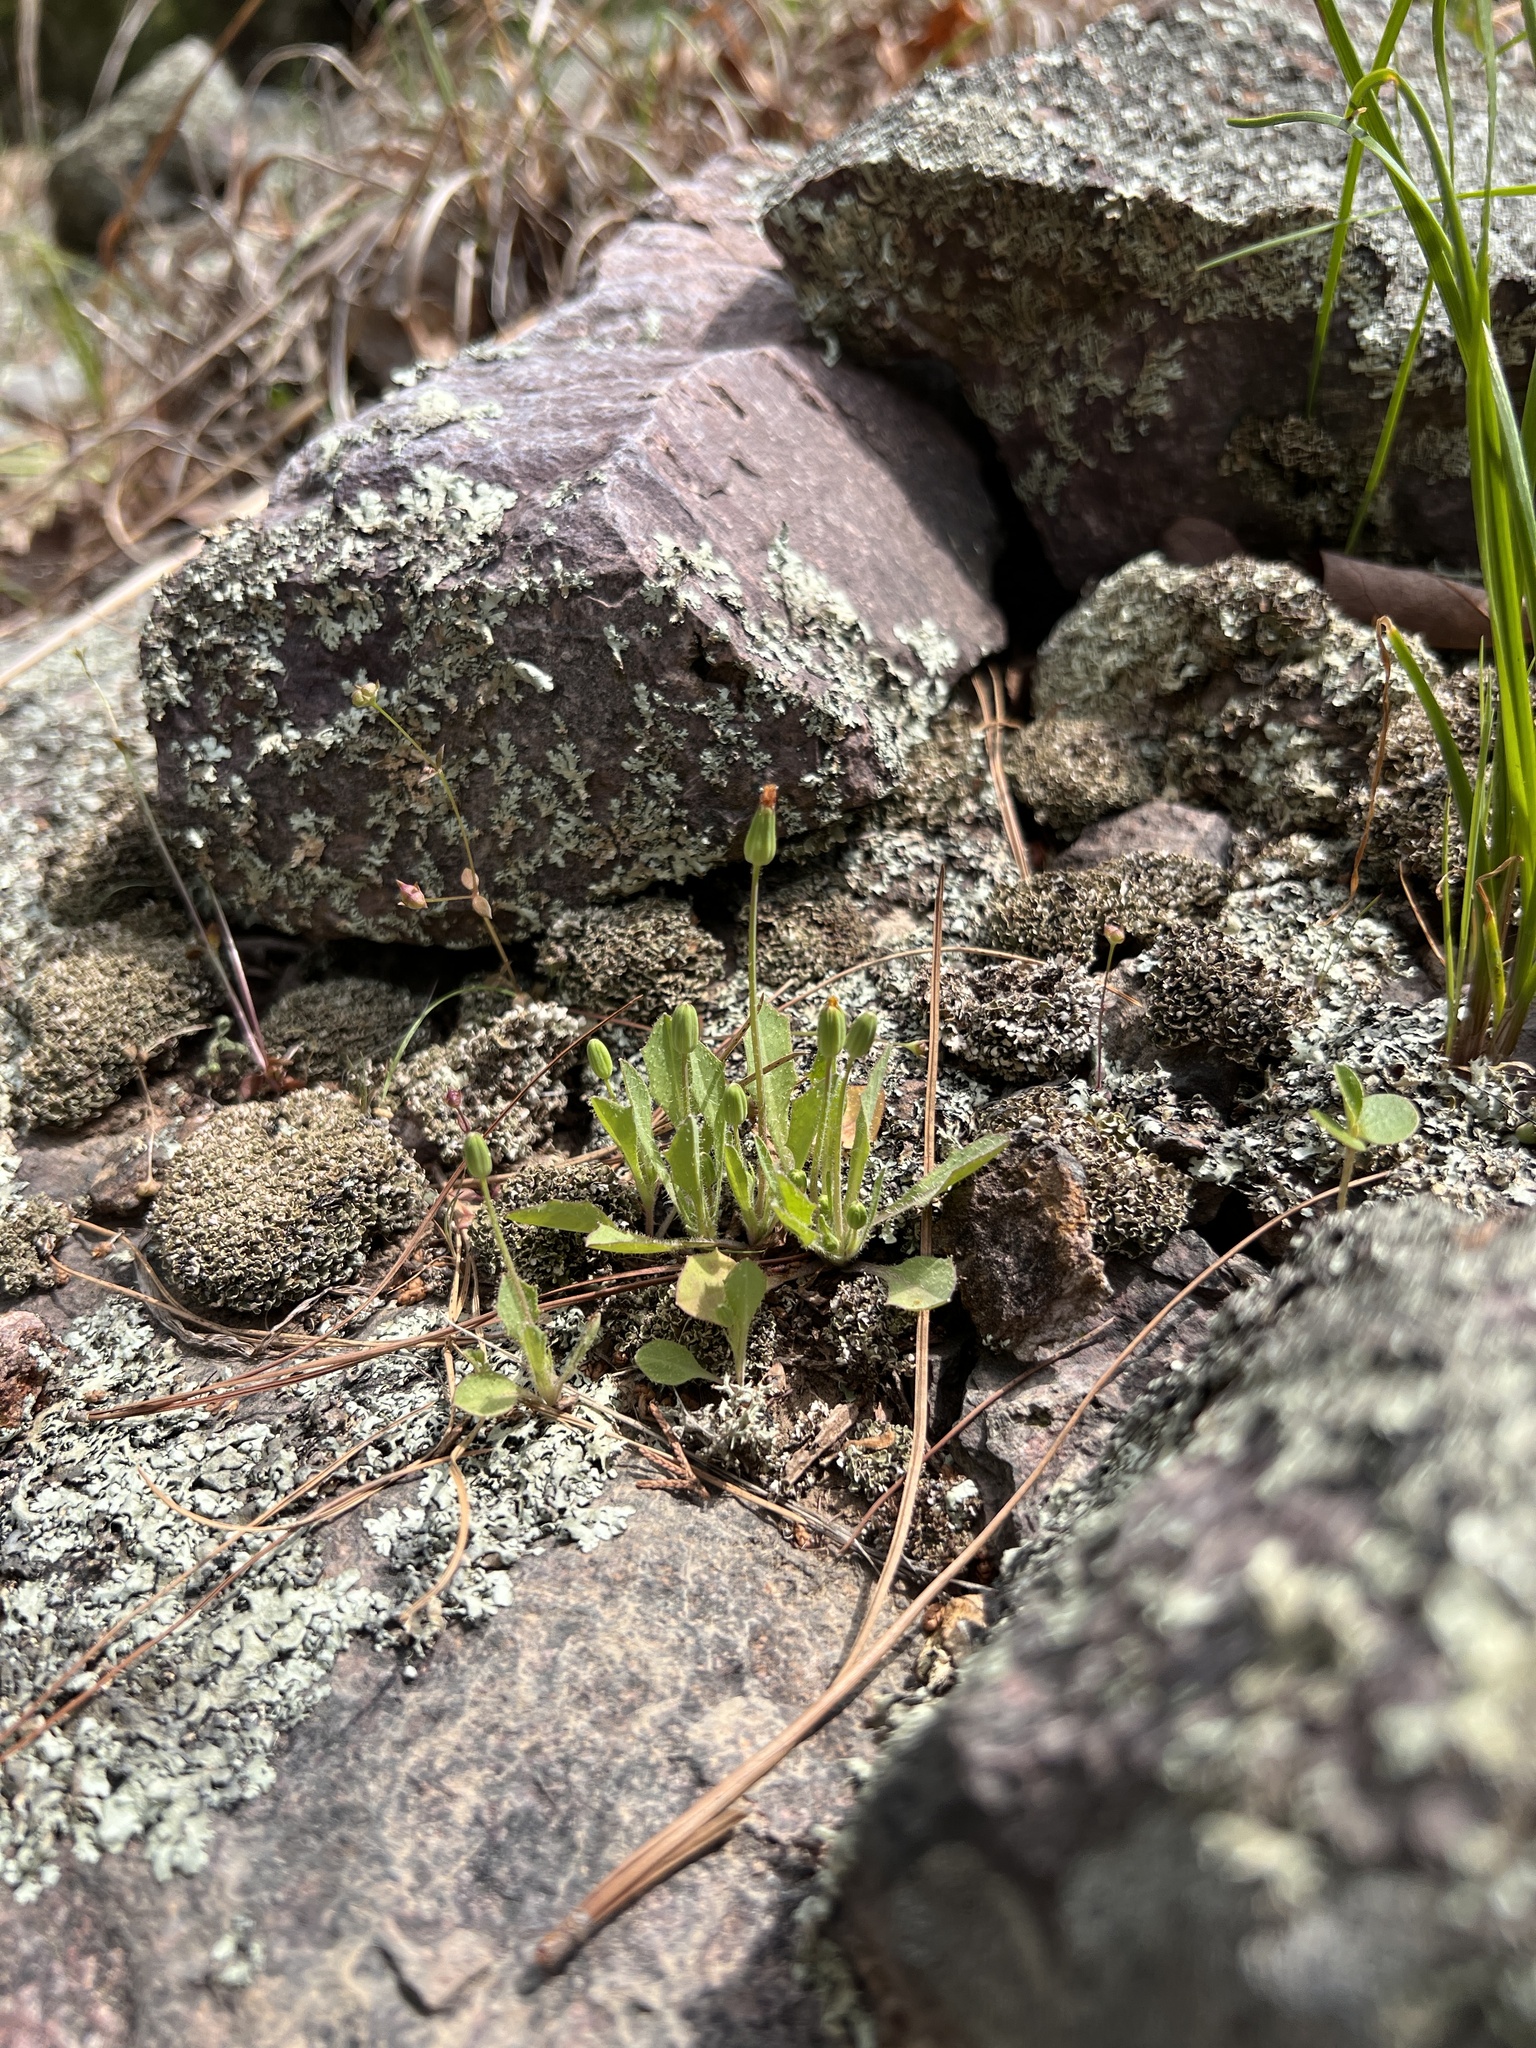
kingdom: Plantae
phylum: Tracheophyta
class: Magnoliopsida
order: Asterales
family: Asteraceae
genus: Krigia
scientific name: Krigia virginica
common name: Virginia dwarf-dandelion
